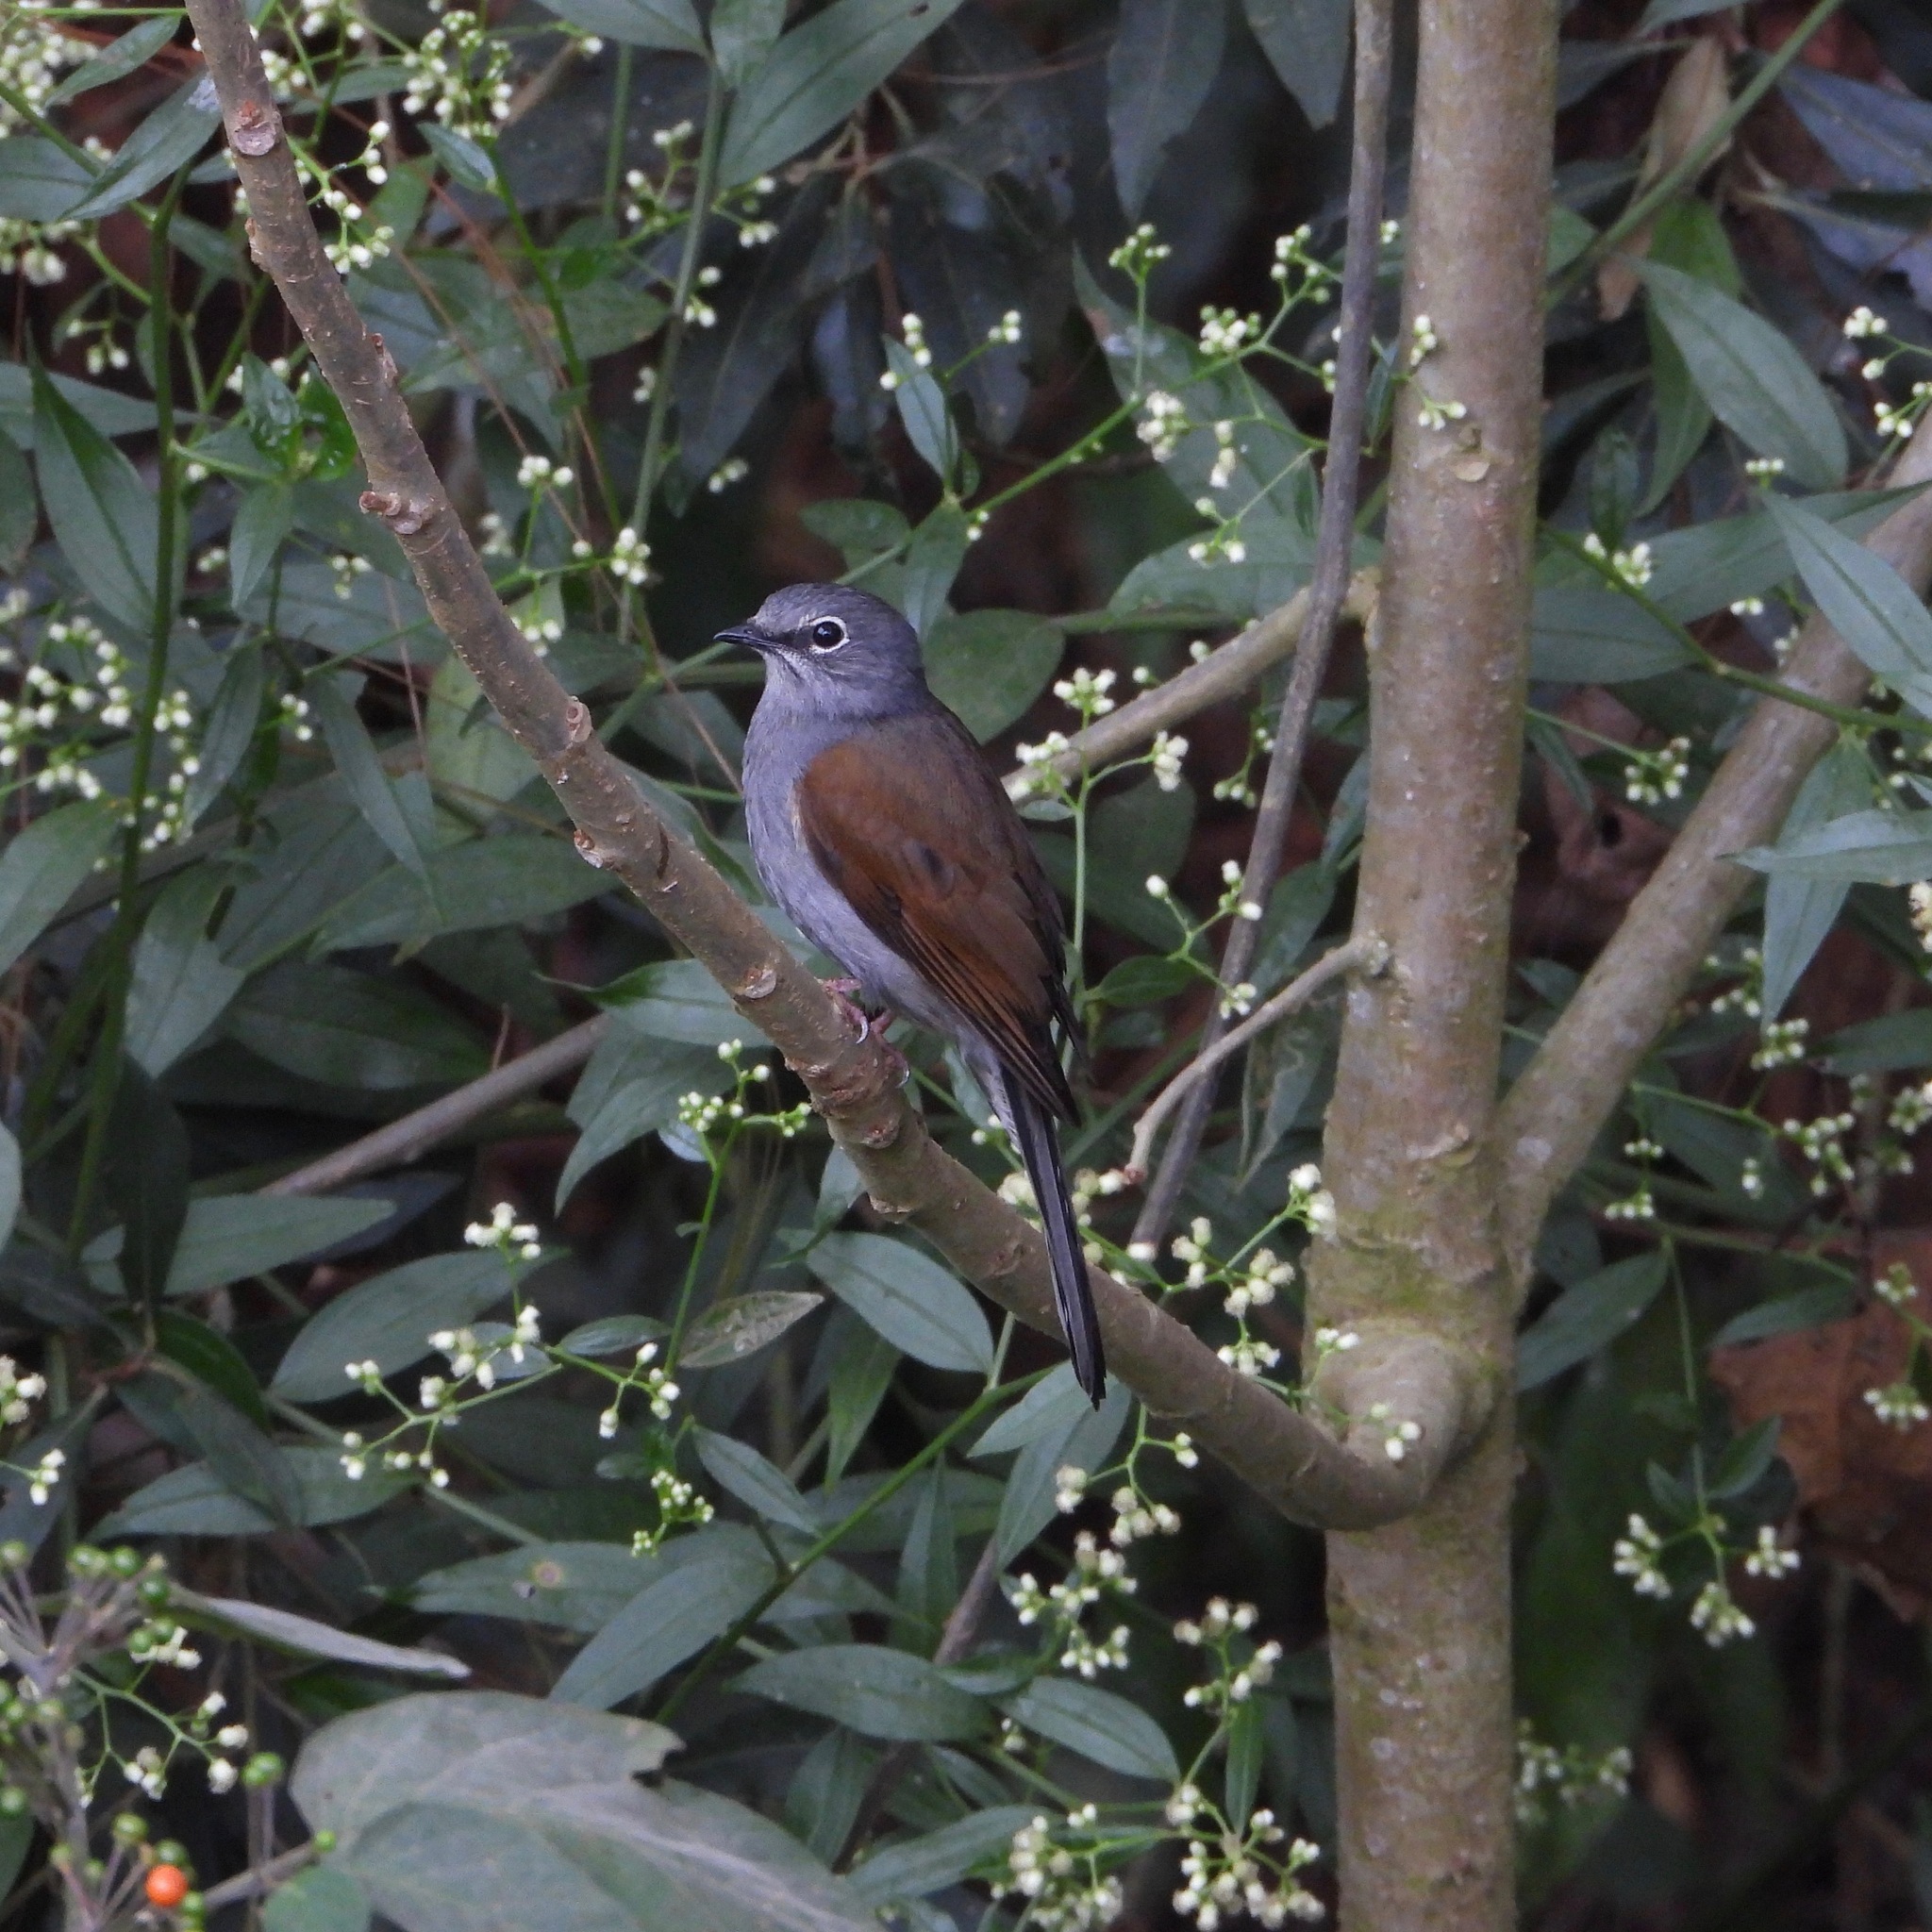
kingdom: Animalia
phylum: Chordata
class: Aves
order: Passeriformes
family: Turdidae
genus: Myadestes
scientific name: Myadestes occidentalis
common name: Brown-backed solitaire
